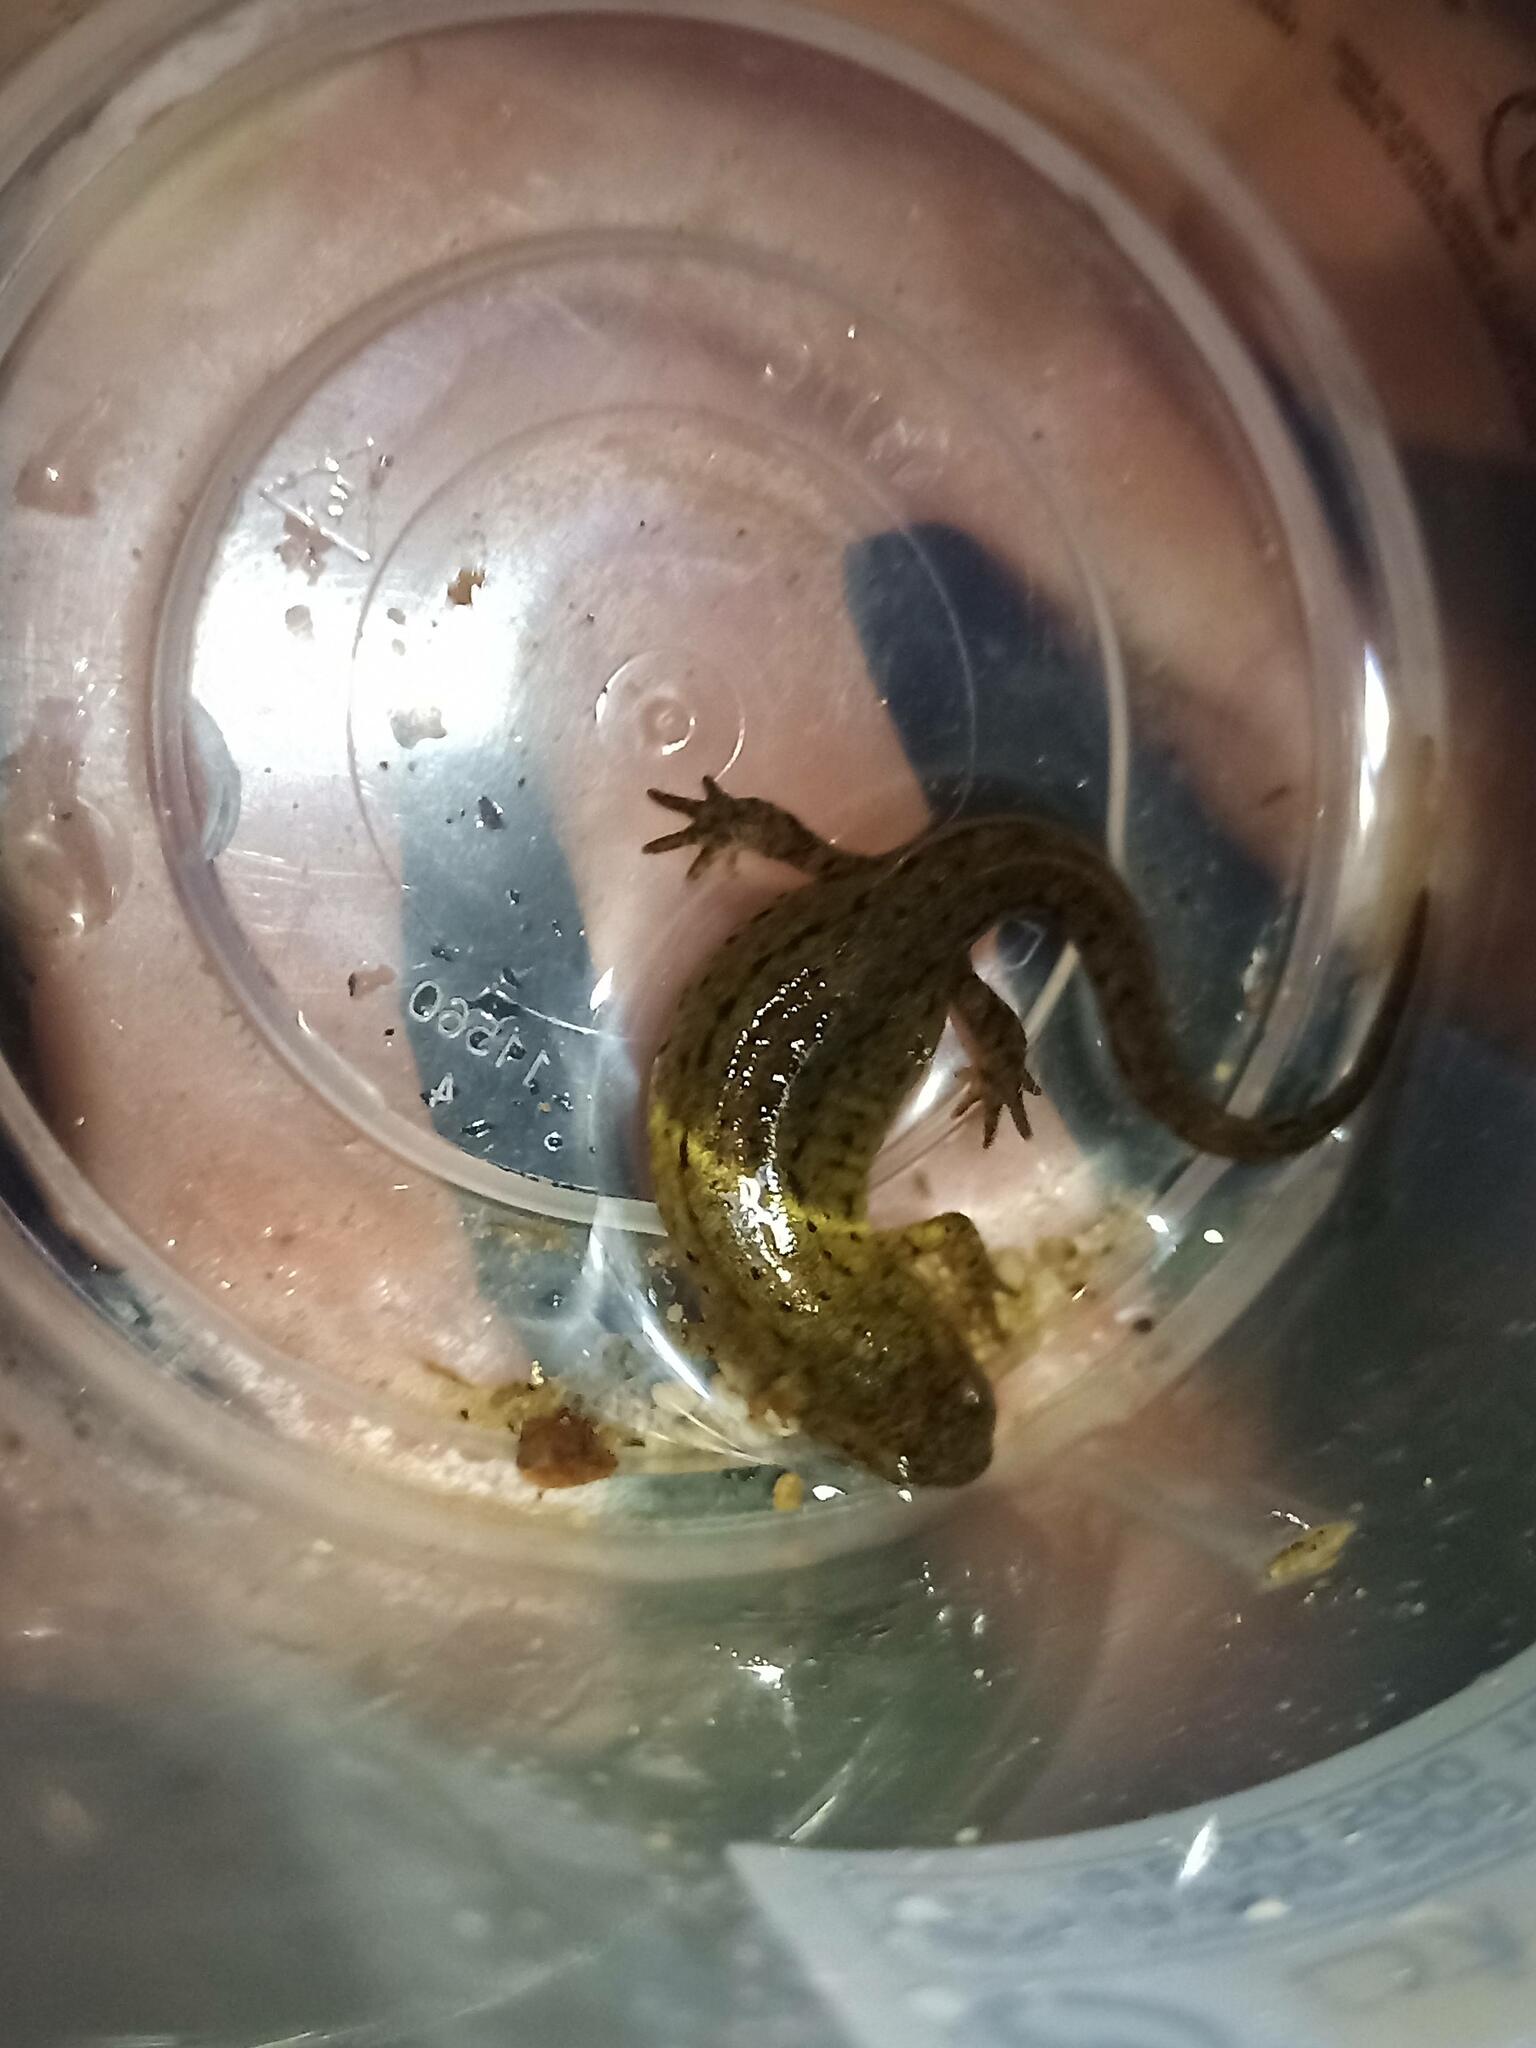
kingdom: Animalia
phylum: Chordata
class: Amphibia
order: Caudata
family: Salamandridae
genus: Lissotriton
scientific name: Lissotriton boscai
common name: Bosca's newt
